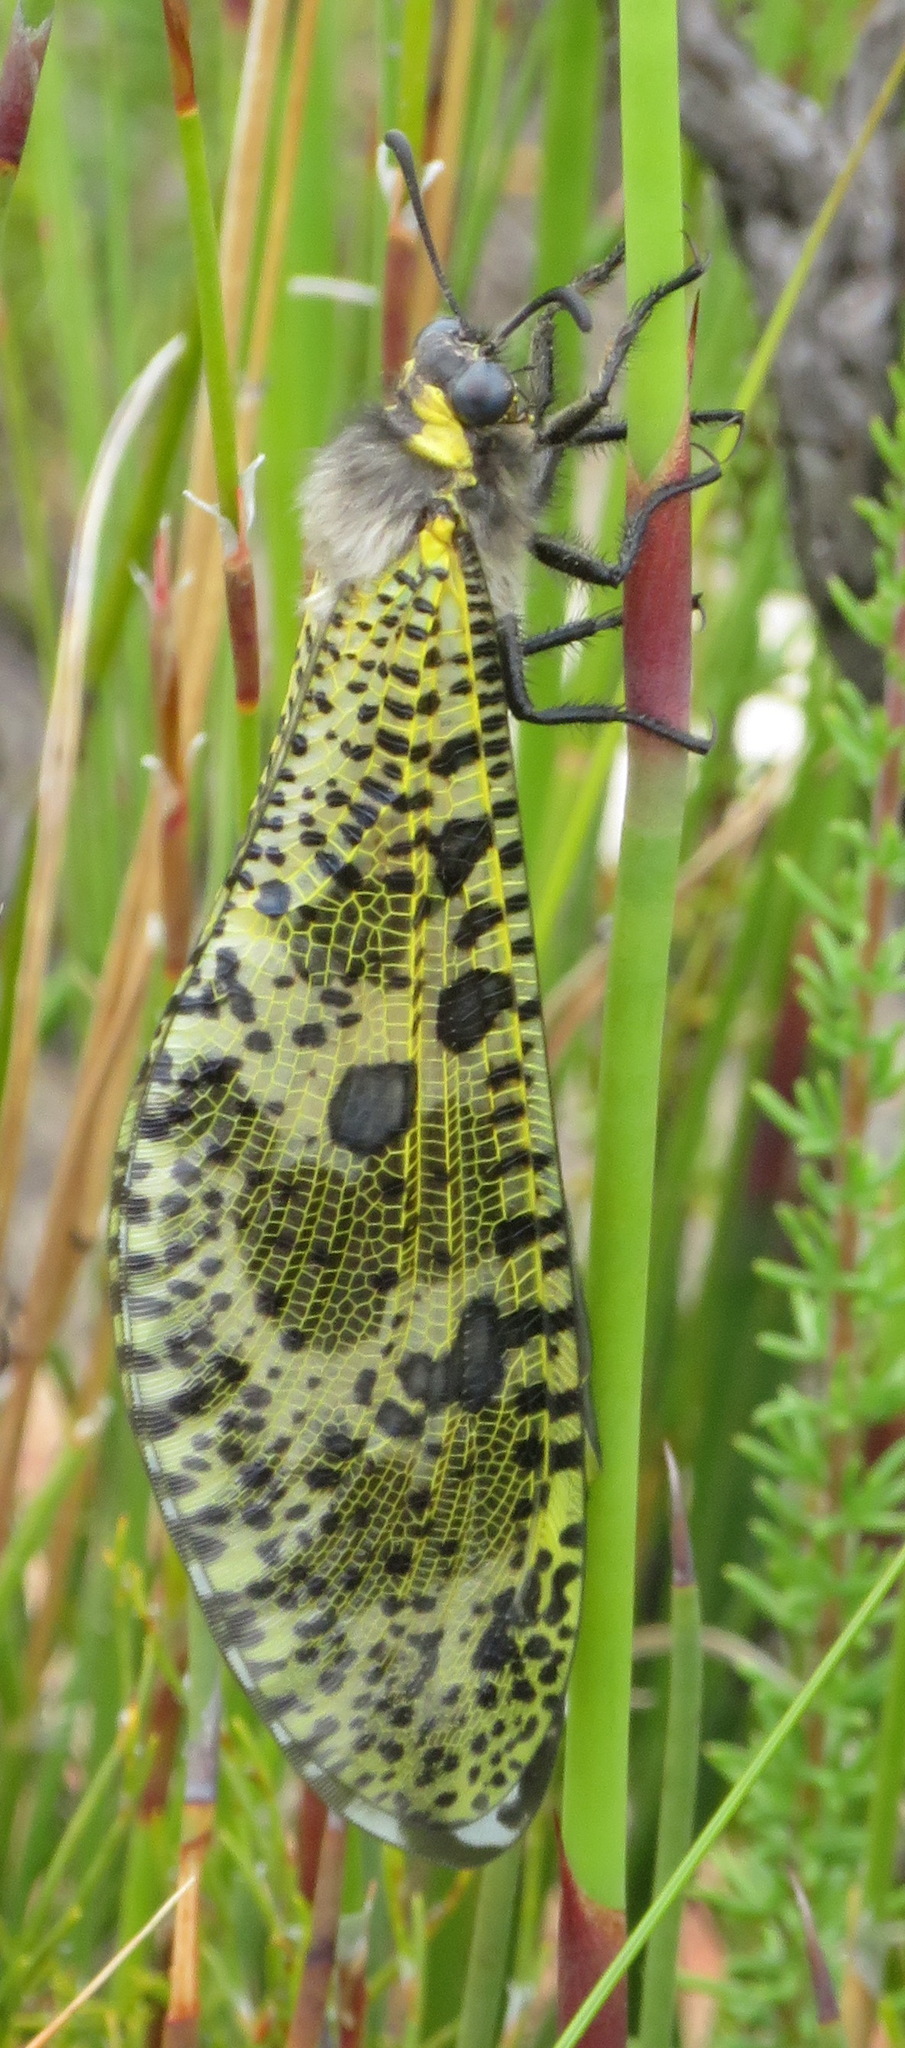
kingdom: Animalia
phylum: Arthropoda
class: Insecta
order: Neuroptera
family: Myrmeleontidae
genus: Palpares
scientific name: Palpares speciosus
